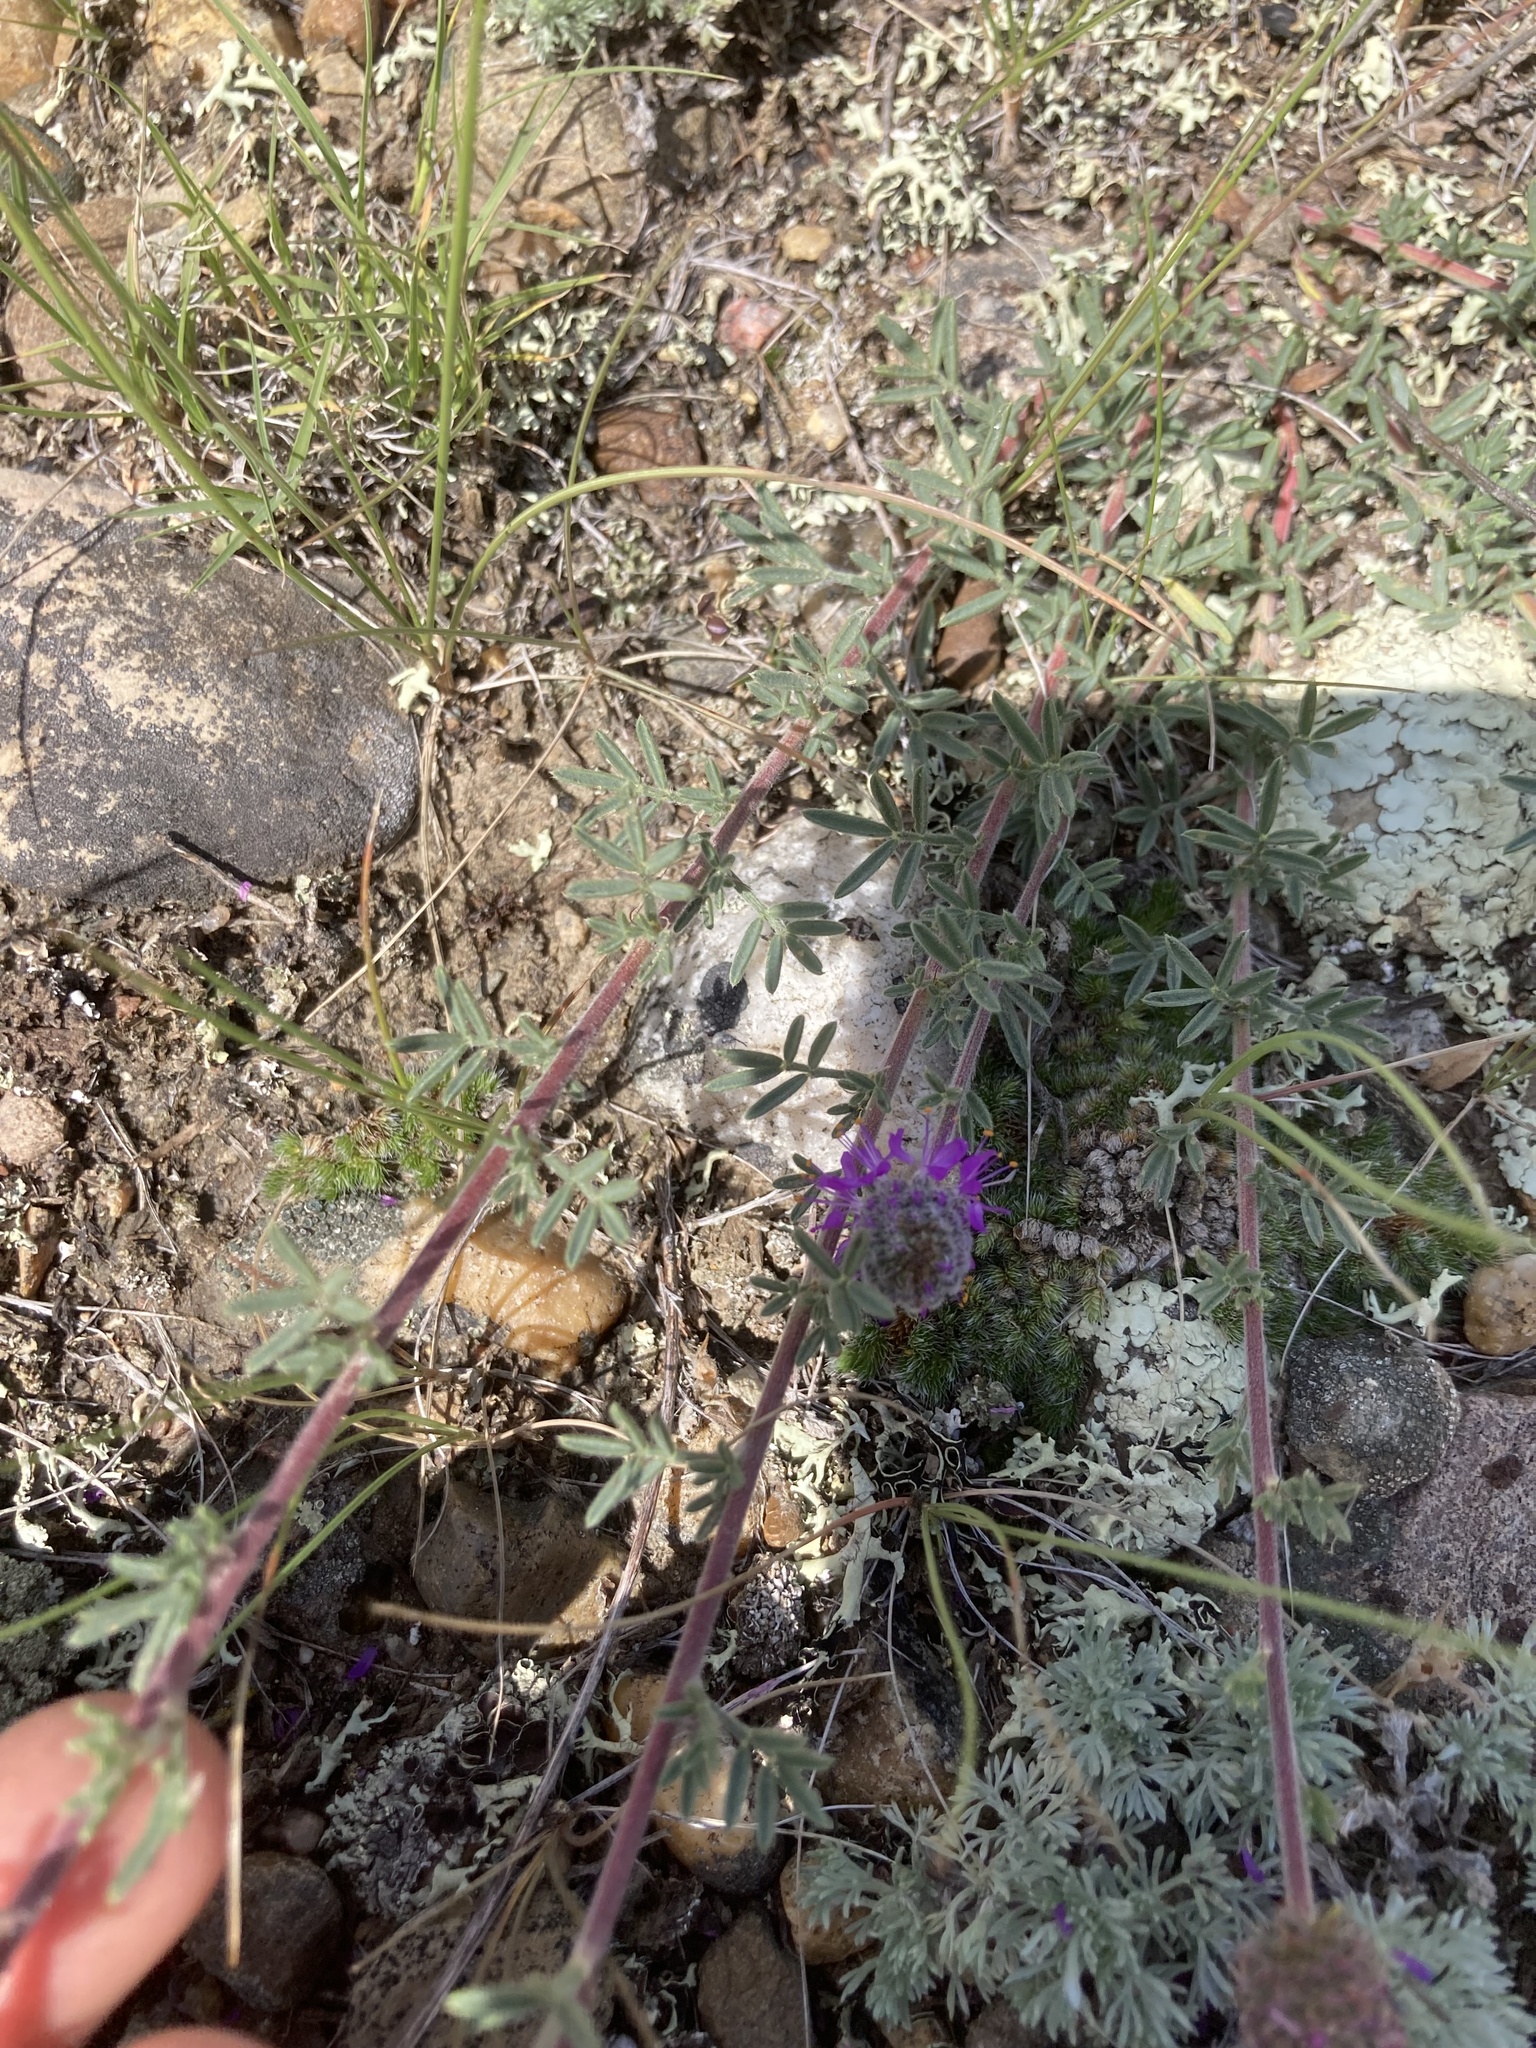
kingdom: Plantae
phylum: Tracheophyta
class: Magnoliopsida
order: Fabales
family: Fabaceae
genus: Dalea
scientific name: Dalea purpurea
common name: Purple prairie-clover
